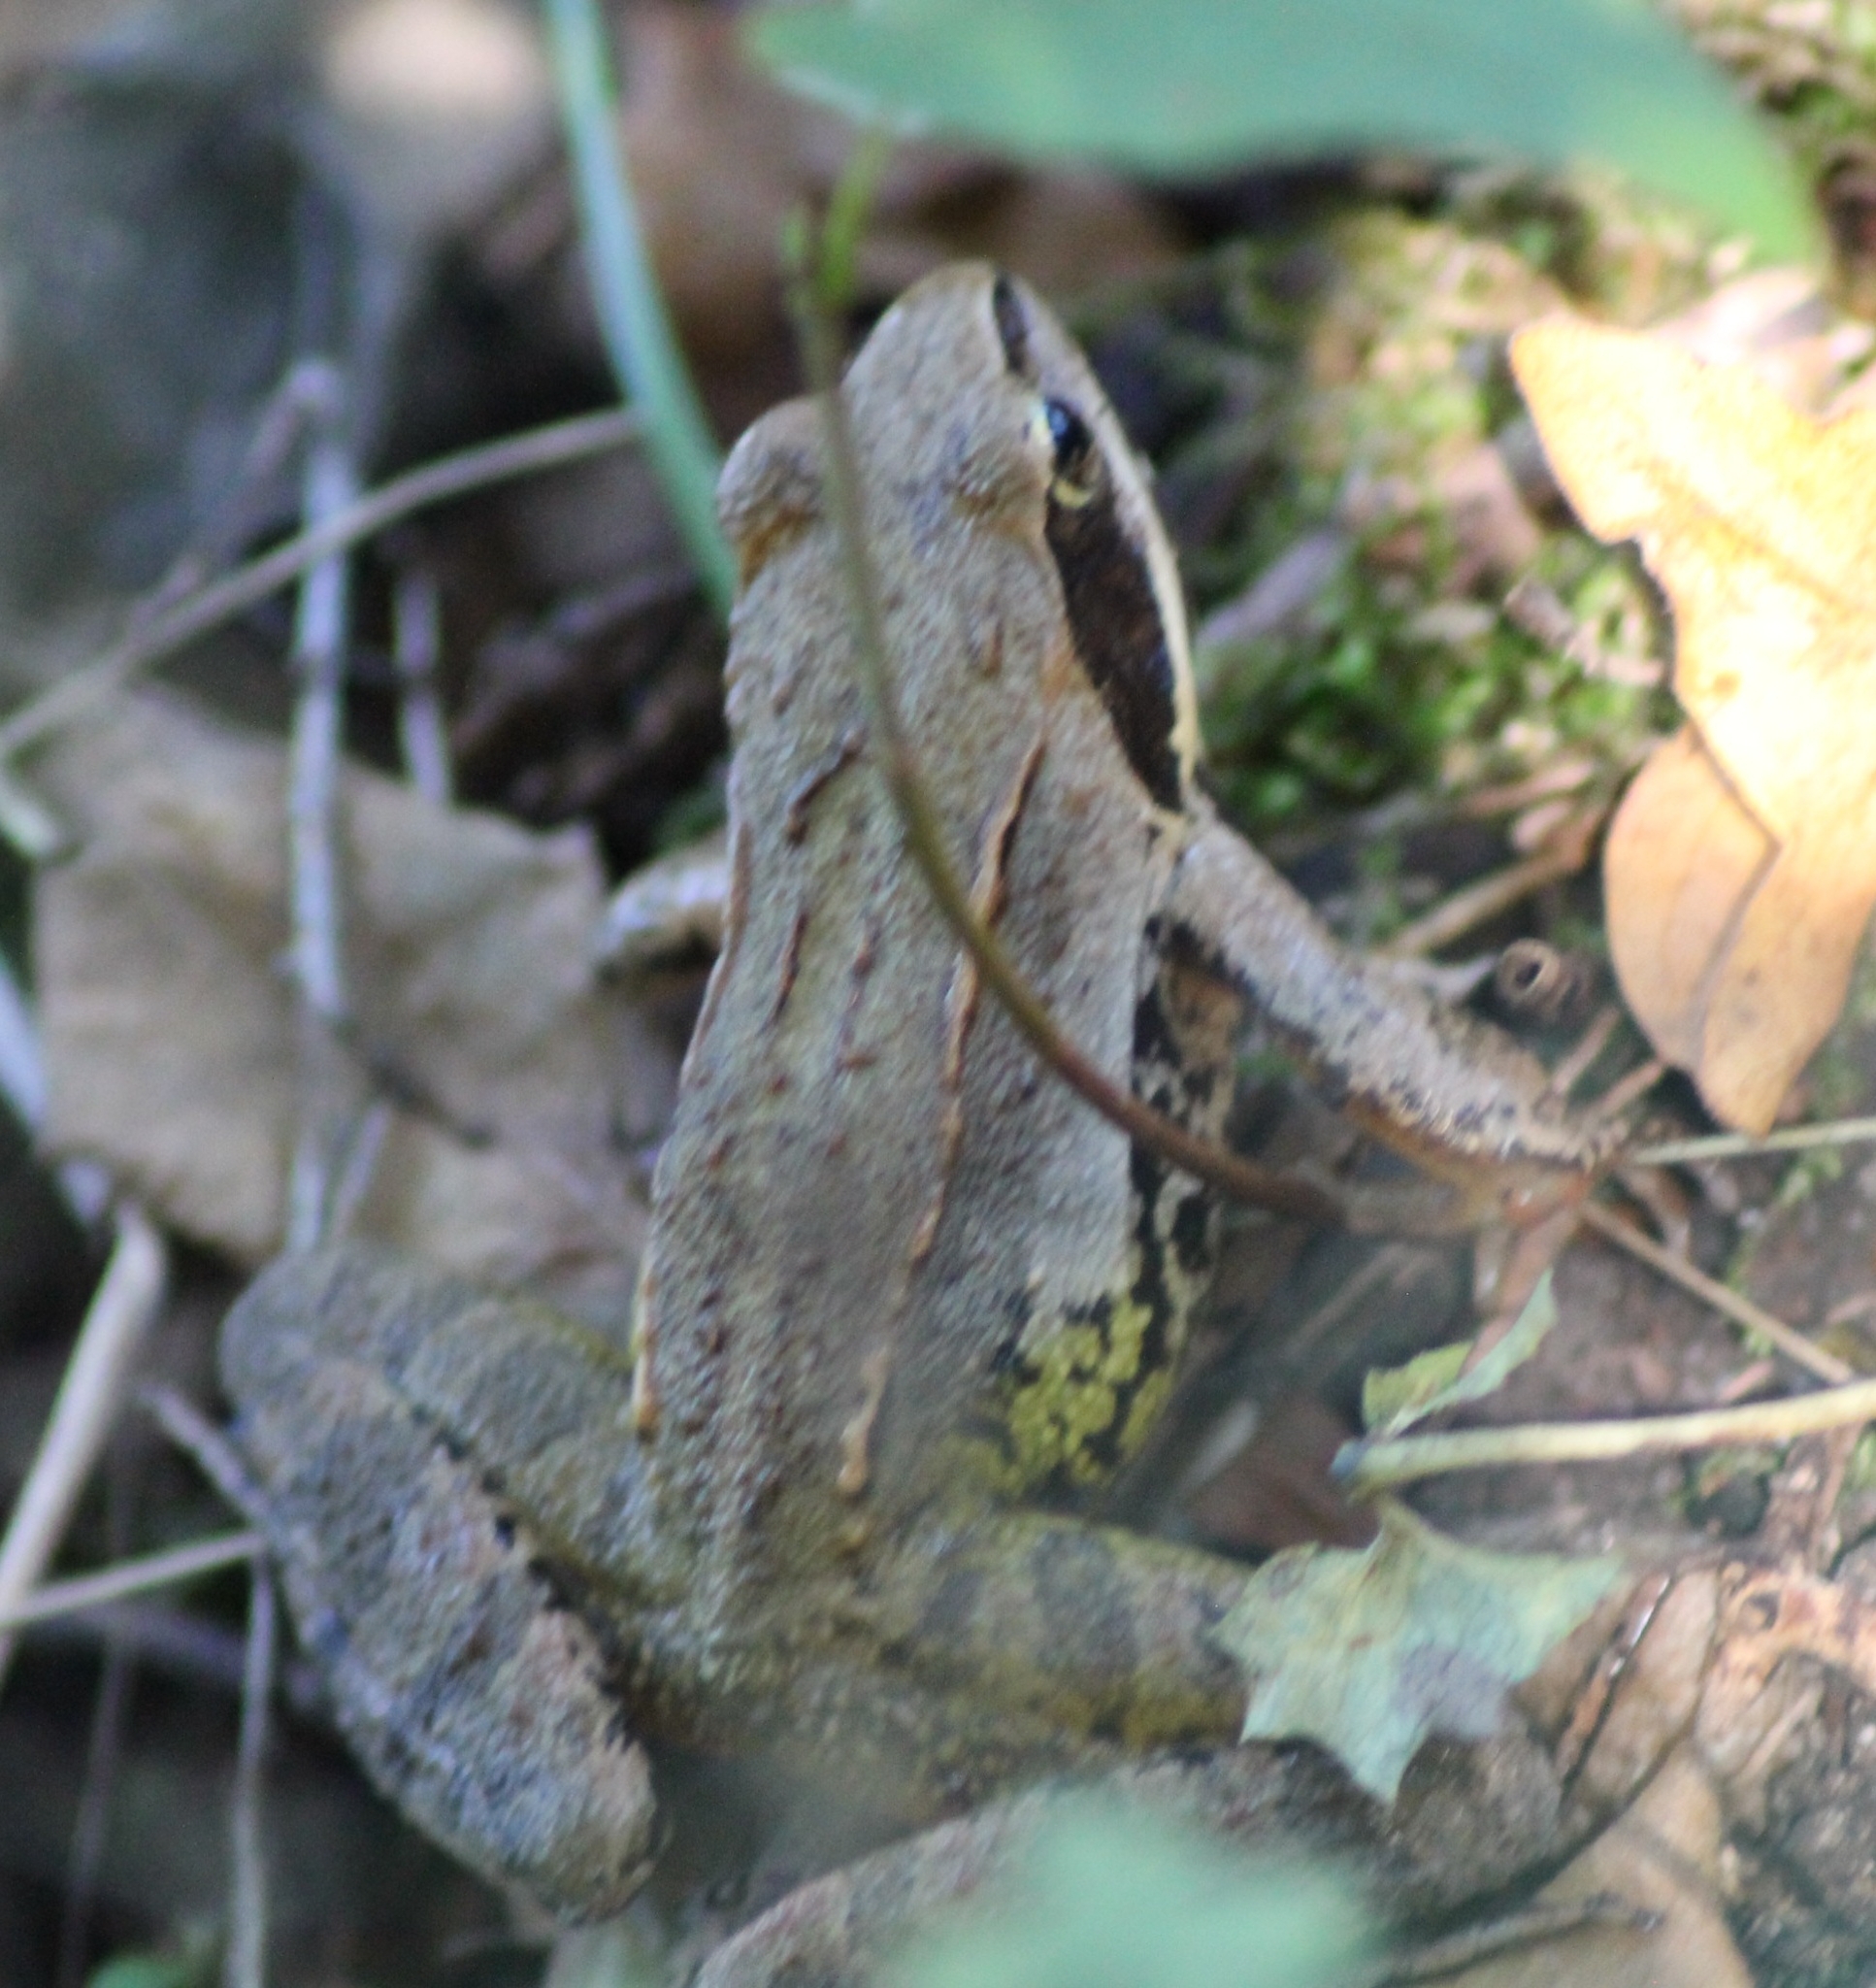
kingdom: Animalia
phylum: Chordata
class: Amphibia
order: Anura
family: Ranidae
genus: Rana
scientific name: Rana dalmatina
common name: Agile frog
